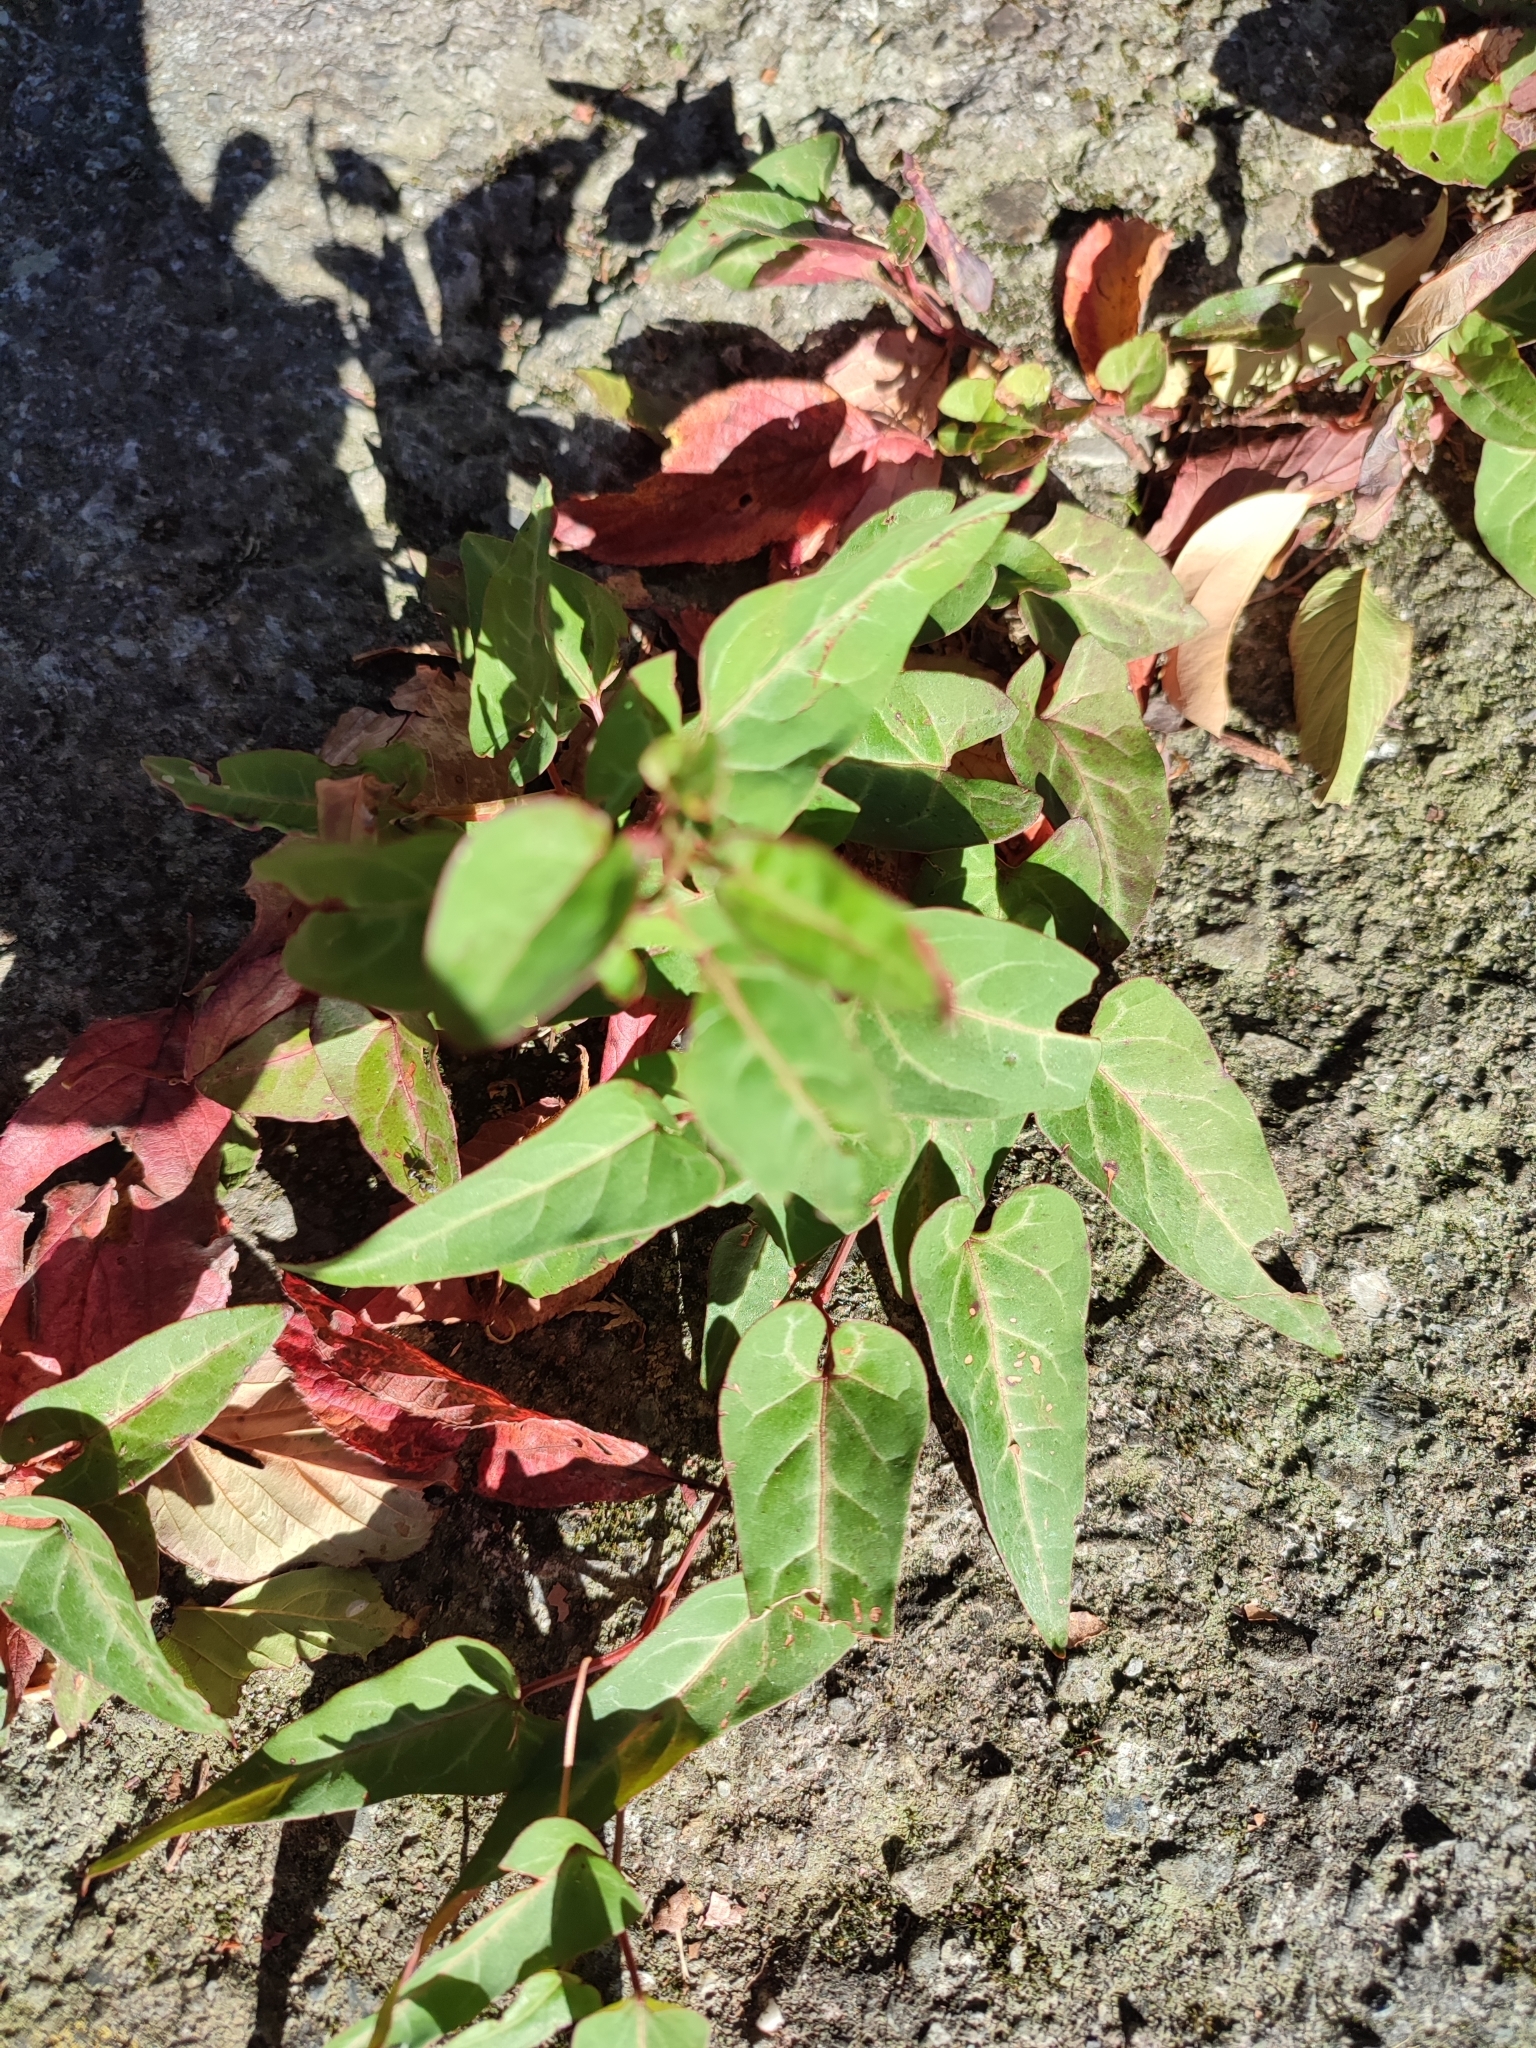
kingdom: Plantae
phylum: Tracheophyta
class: Magnoliopsida
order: Caryophyllales
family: Polygonaceae
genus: Reynoutria
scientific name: Reynoutria multiflora
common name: Chinese fleeceflower
